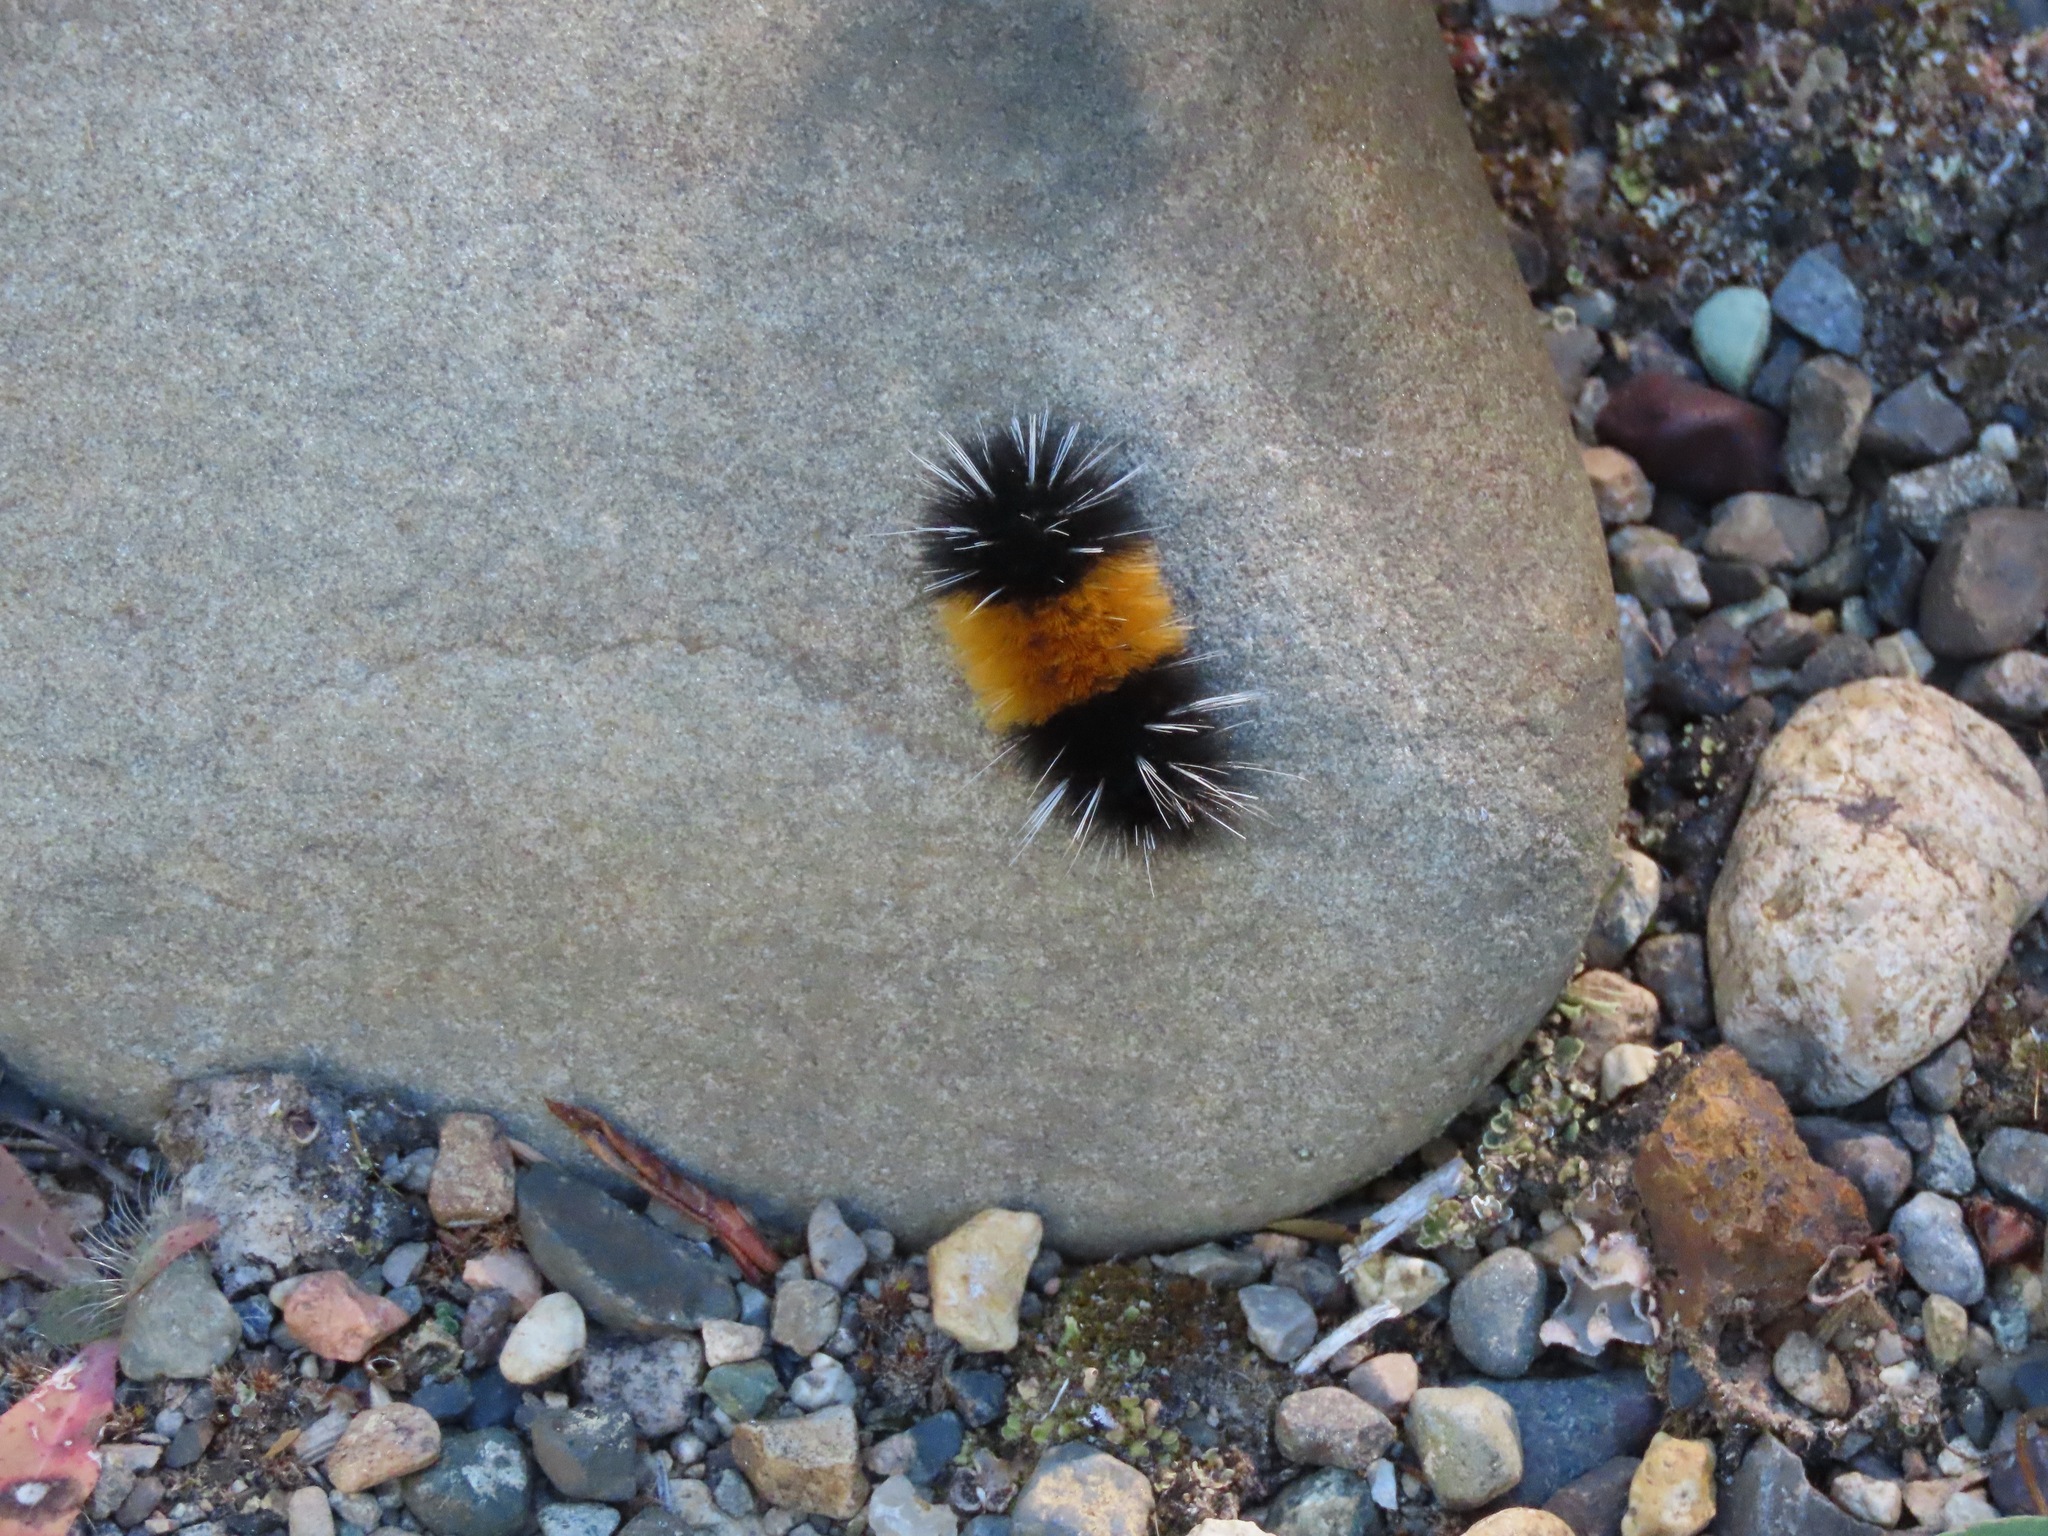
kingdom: Animalia
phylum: Arthropoda
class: Insecta
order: Lepidoptera
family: Erebidae
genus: Lophocampa
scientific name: Lophocampa maculata
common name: Spotted tussock moth
